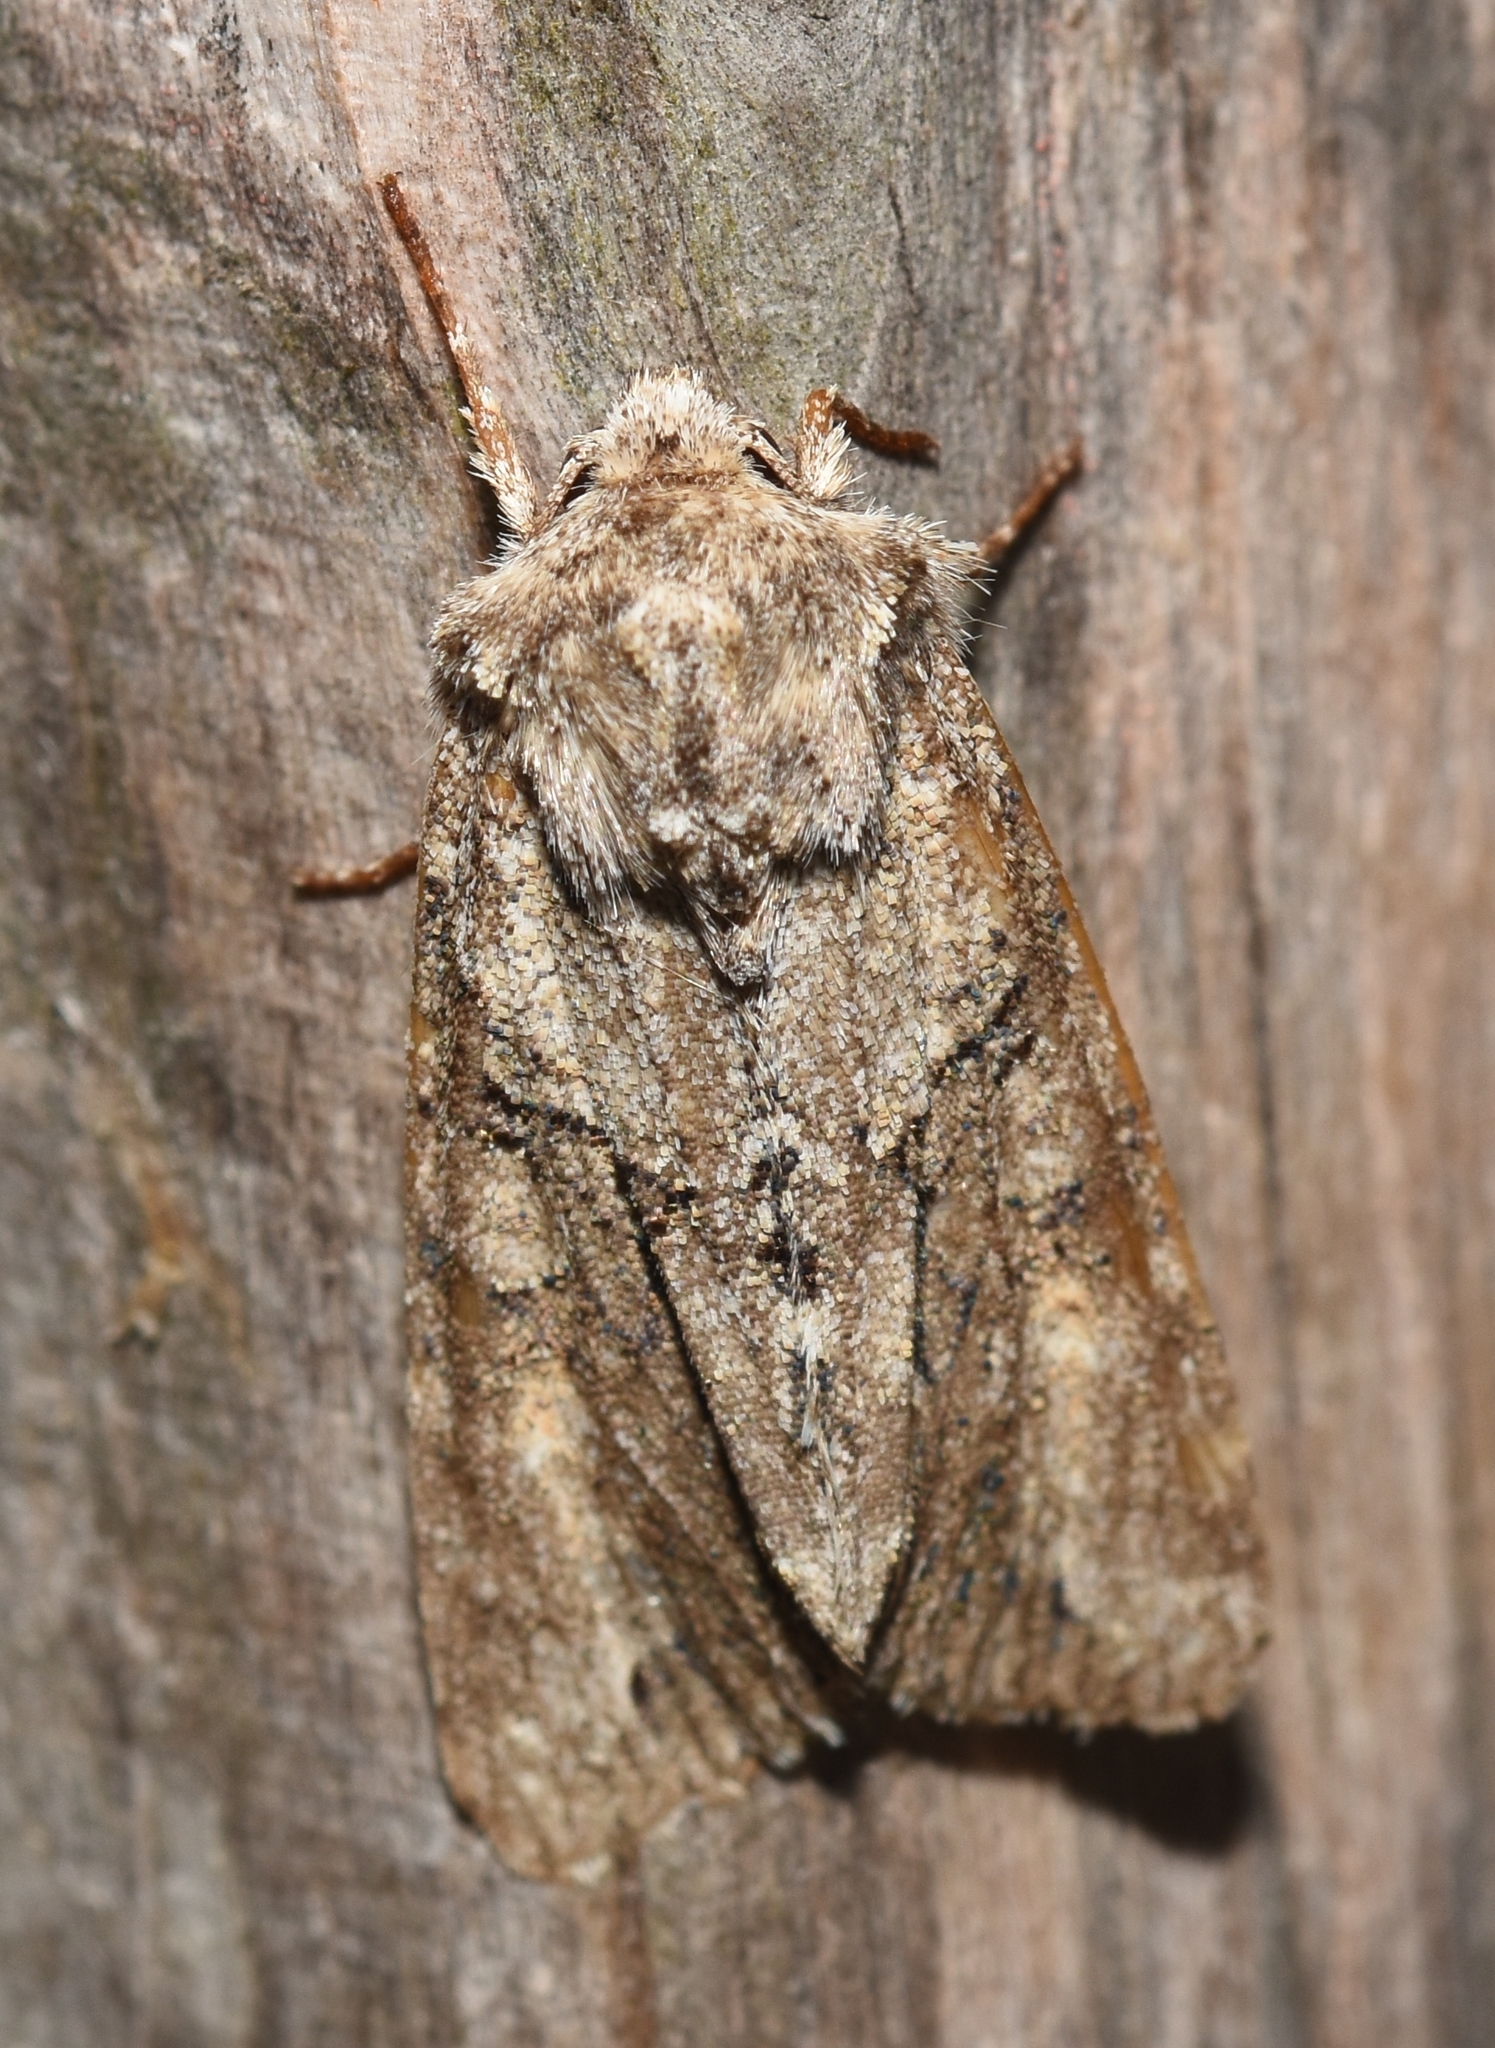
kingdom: Animalia
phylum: Arthropoda
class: Insecta
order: Lepidoptera
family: Noctuidae
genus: Achatia
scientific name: Achatia distincta
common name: Distinct quaker
